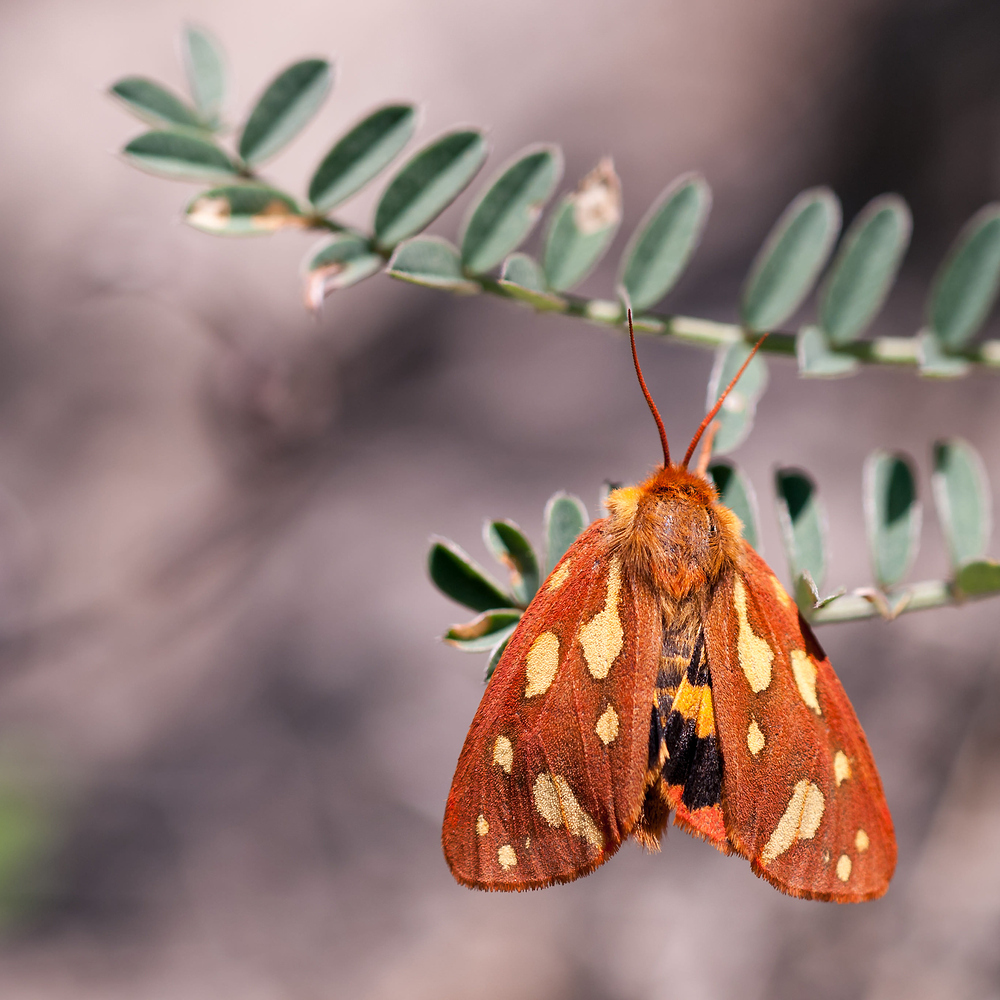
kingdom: Animalia
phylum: Arthropoda
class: Insecta
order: Lepidoptera
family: Erebidae
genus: Arctia
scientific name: Arctia testudinaria
